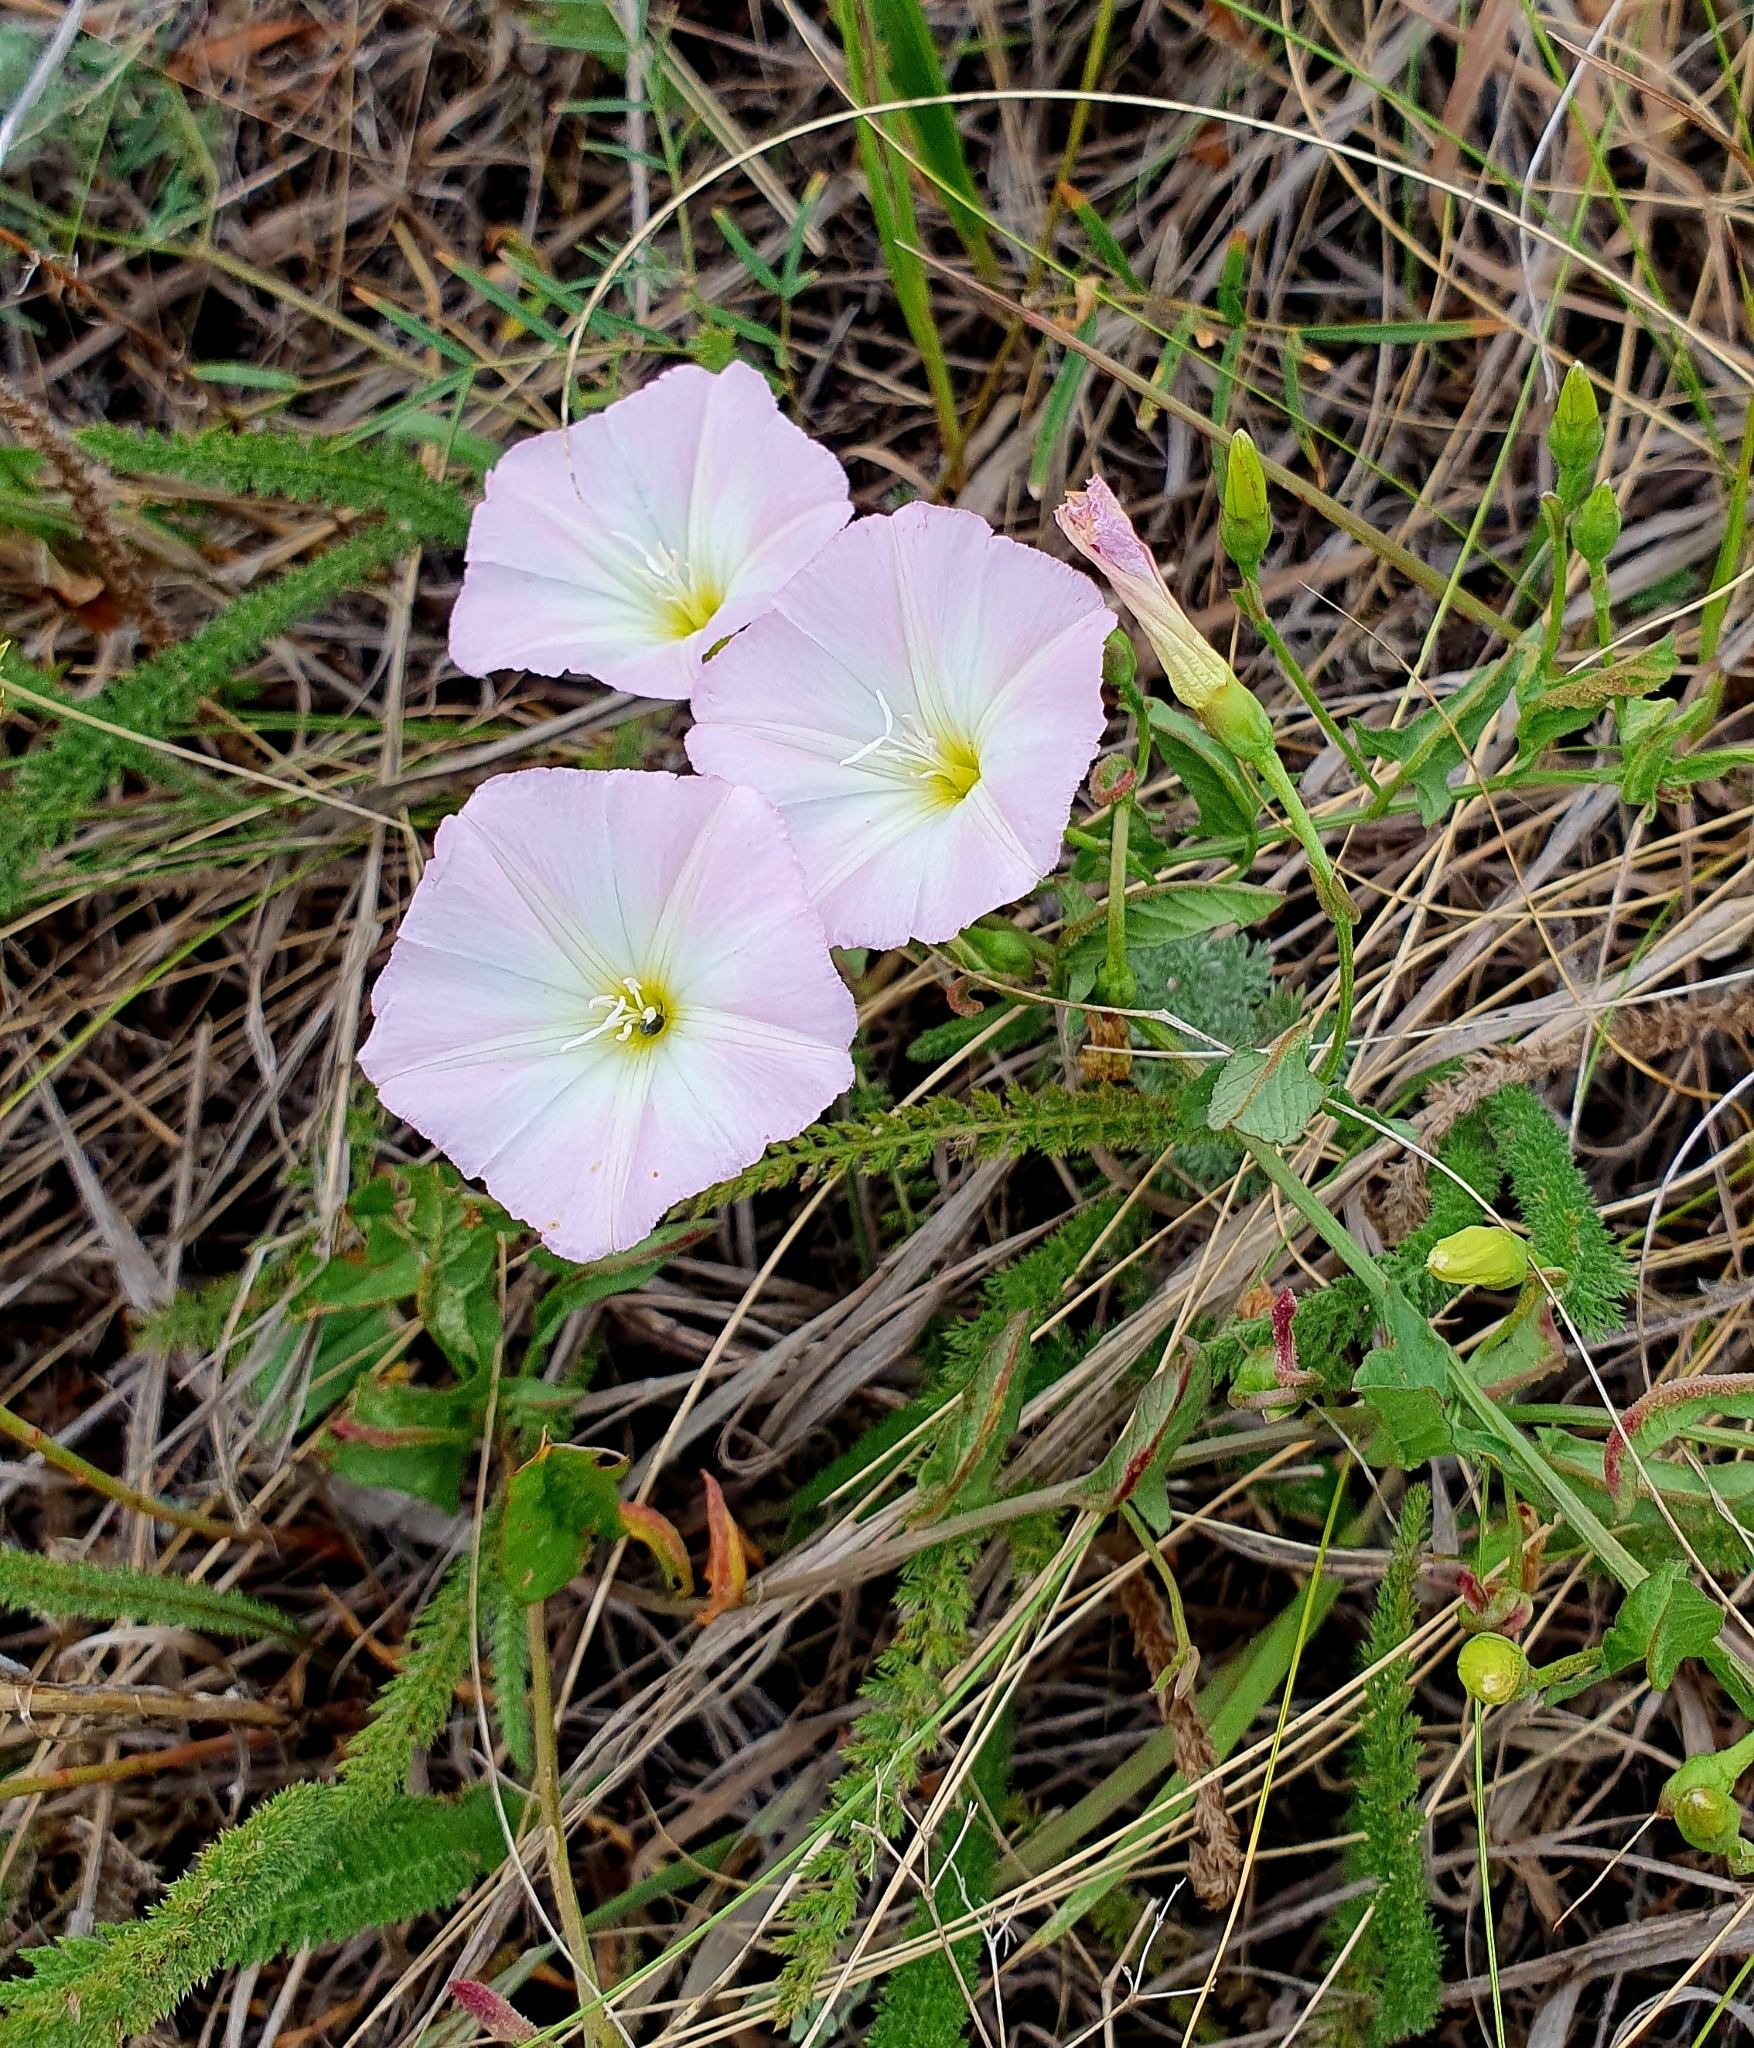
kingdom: Plantae
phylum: Tracheophyta
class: Magnoliopsida
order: Solanales
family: Convolvulaceae
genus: Convolvulus
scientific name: Convolvulus arvensis
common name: Field bindweed
